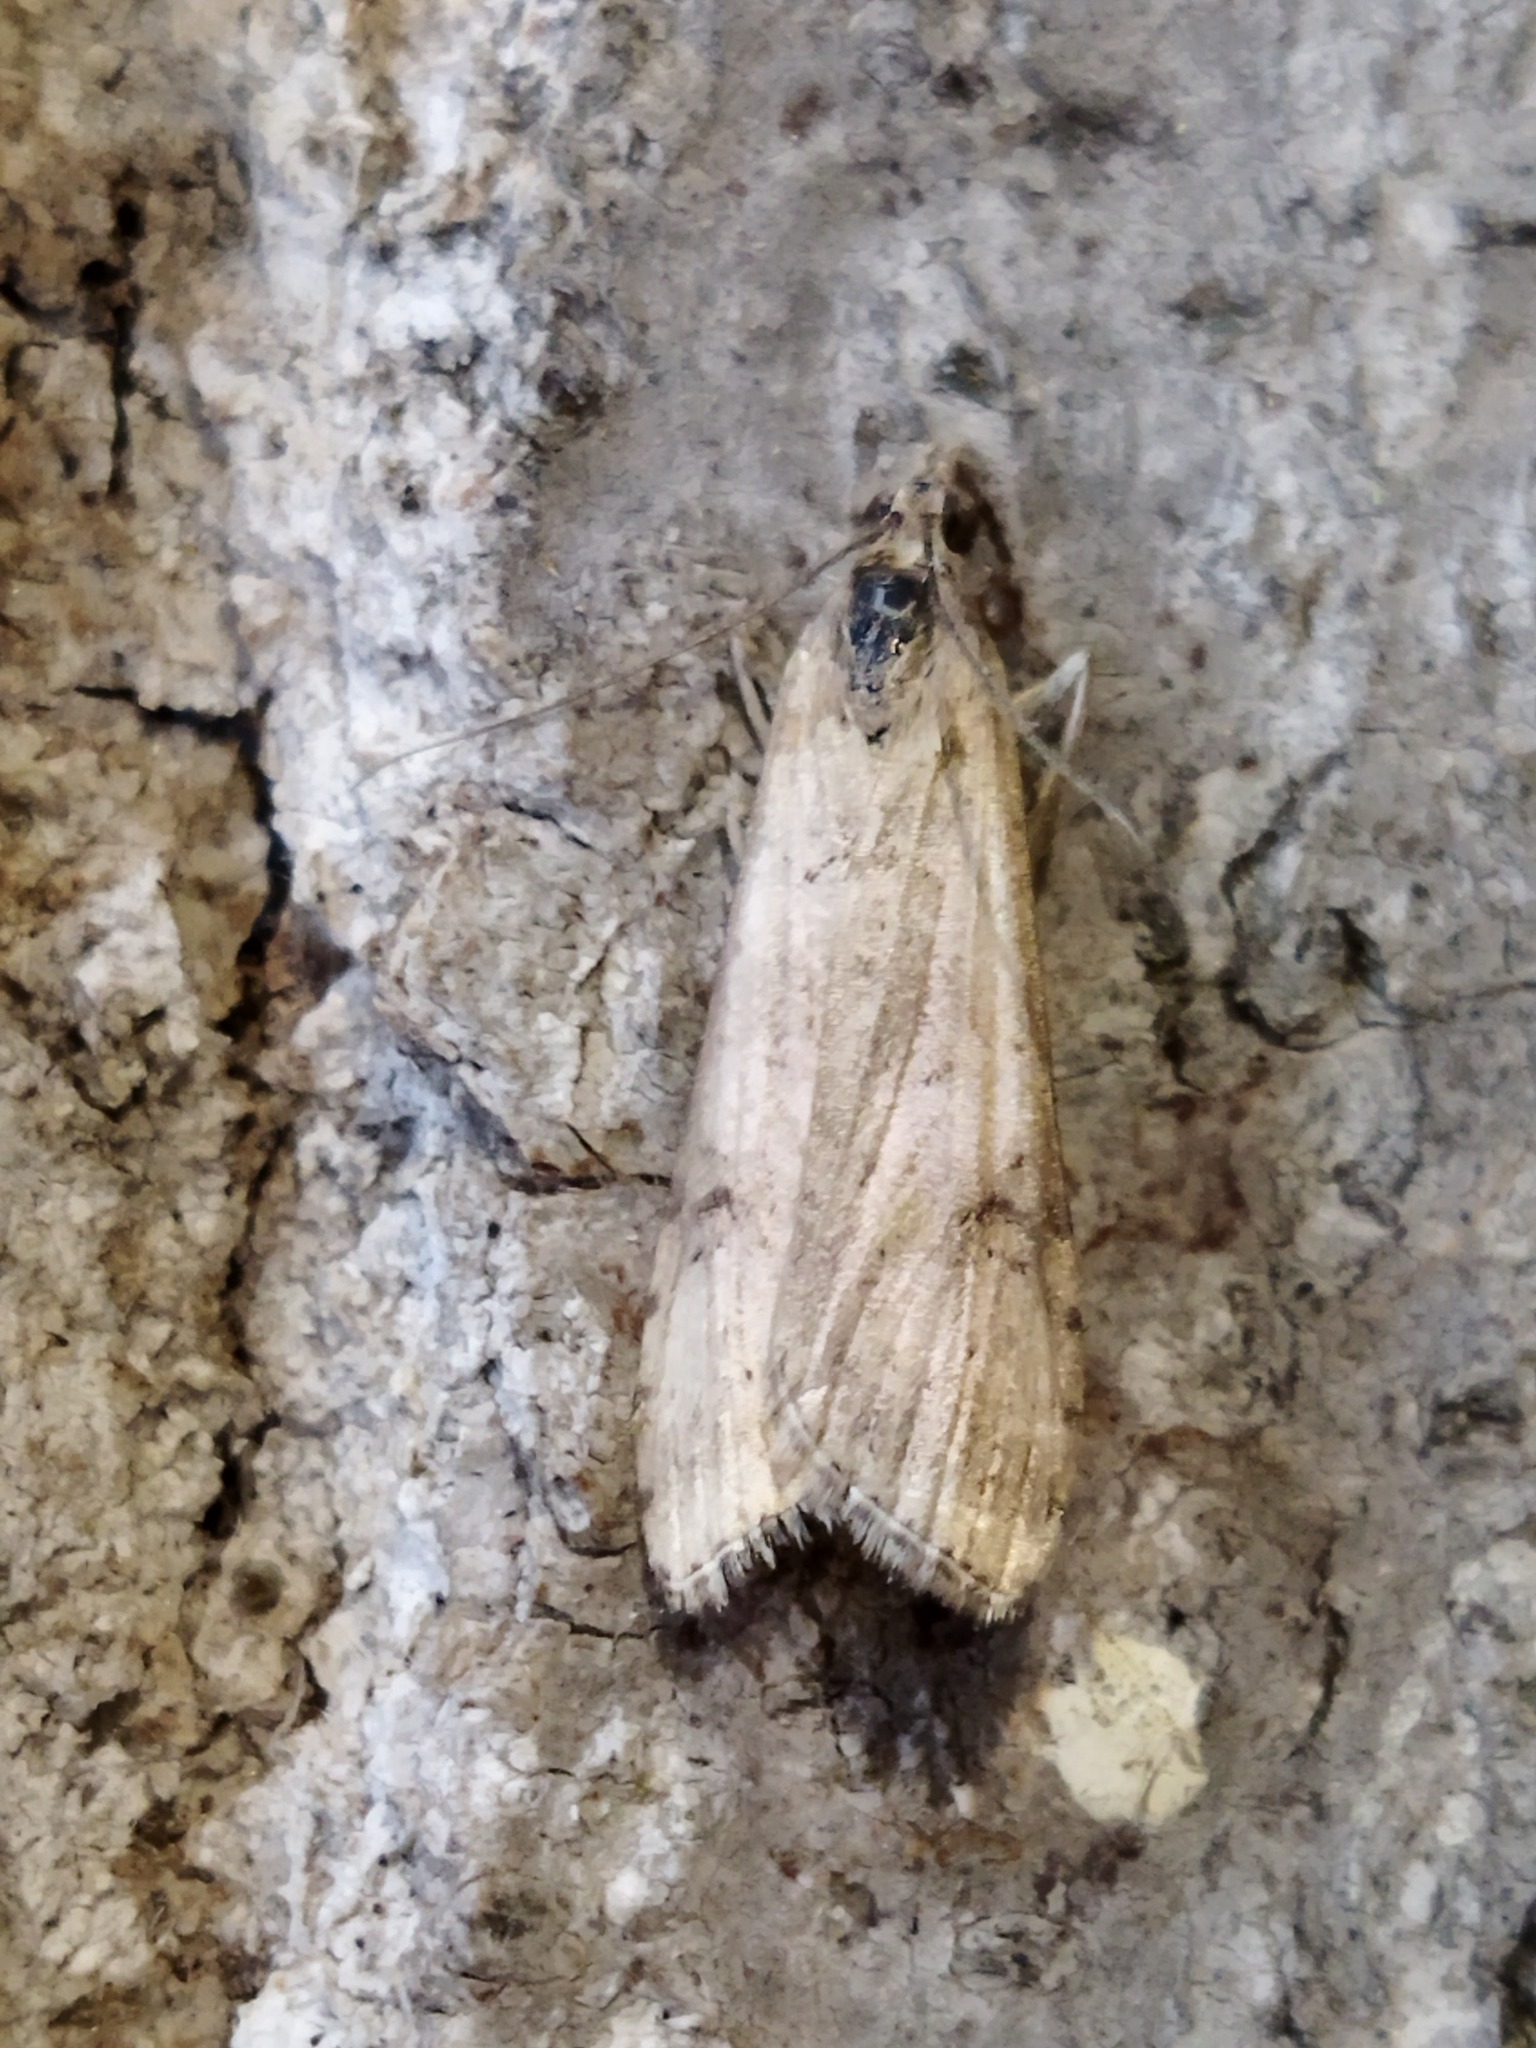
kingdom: Animalia
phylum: Arthropoda
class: Insecta
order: Lepidoptera
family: Crambidae
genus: Nomophila
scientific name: Nomophila noctuella
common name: Rush veneer
